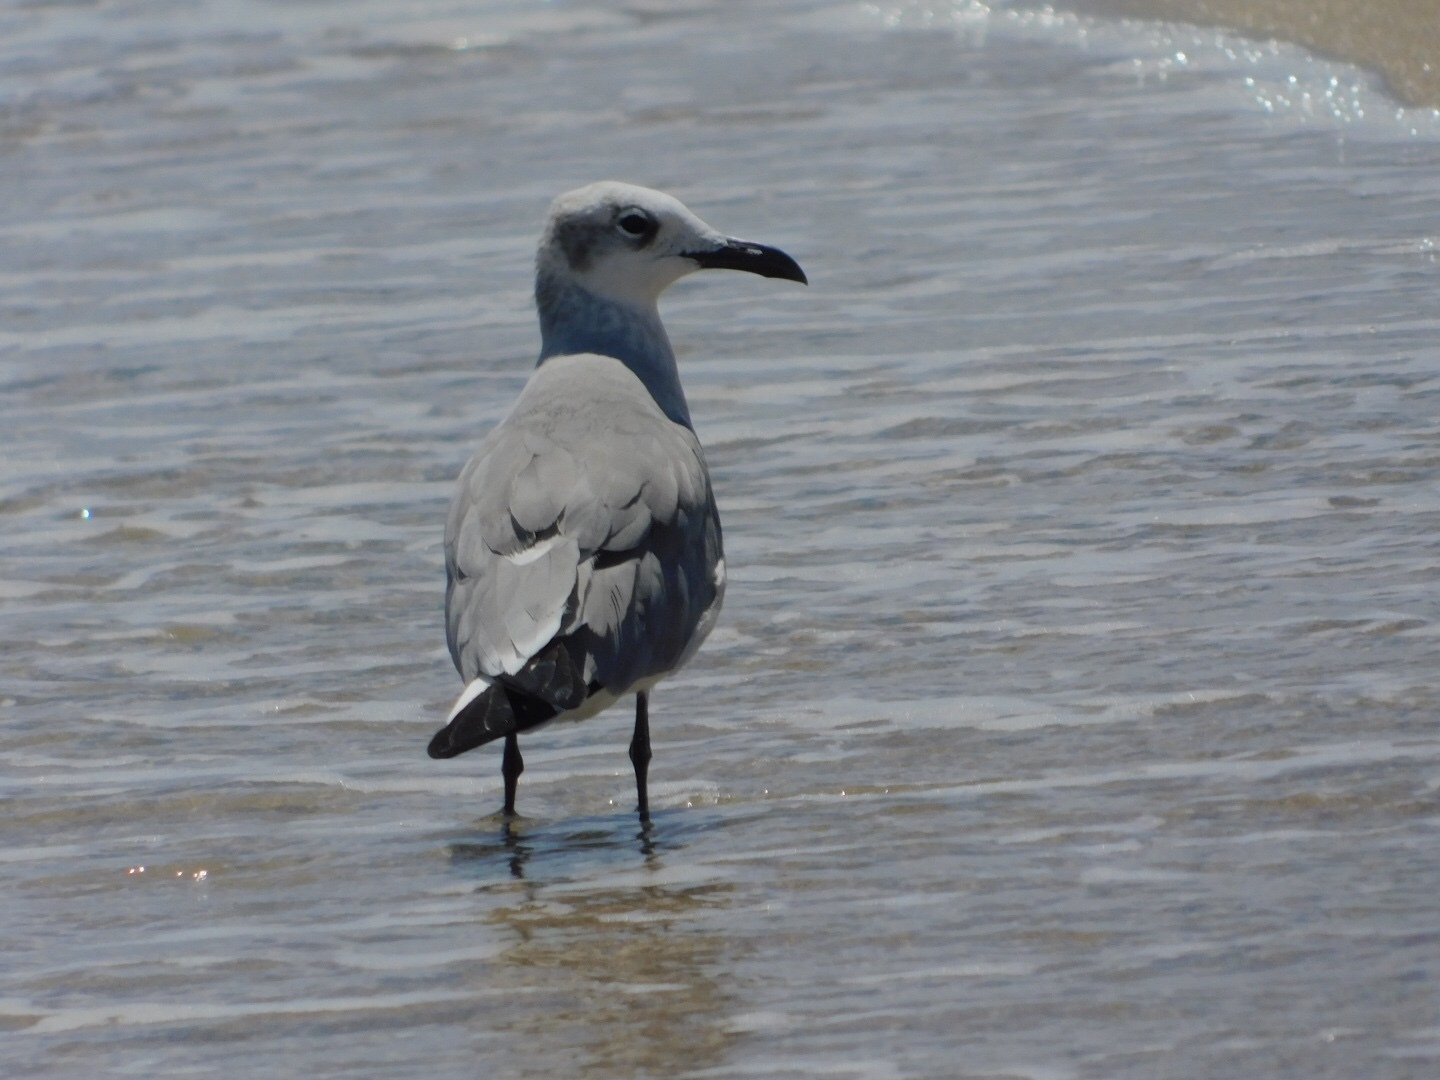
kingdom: Animalia
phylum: Chordata
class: Aves
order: Charadriiformes
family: Laridae
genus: Leucophaeus
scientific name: Leucophaeus atricilla
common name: Laughing gull
